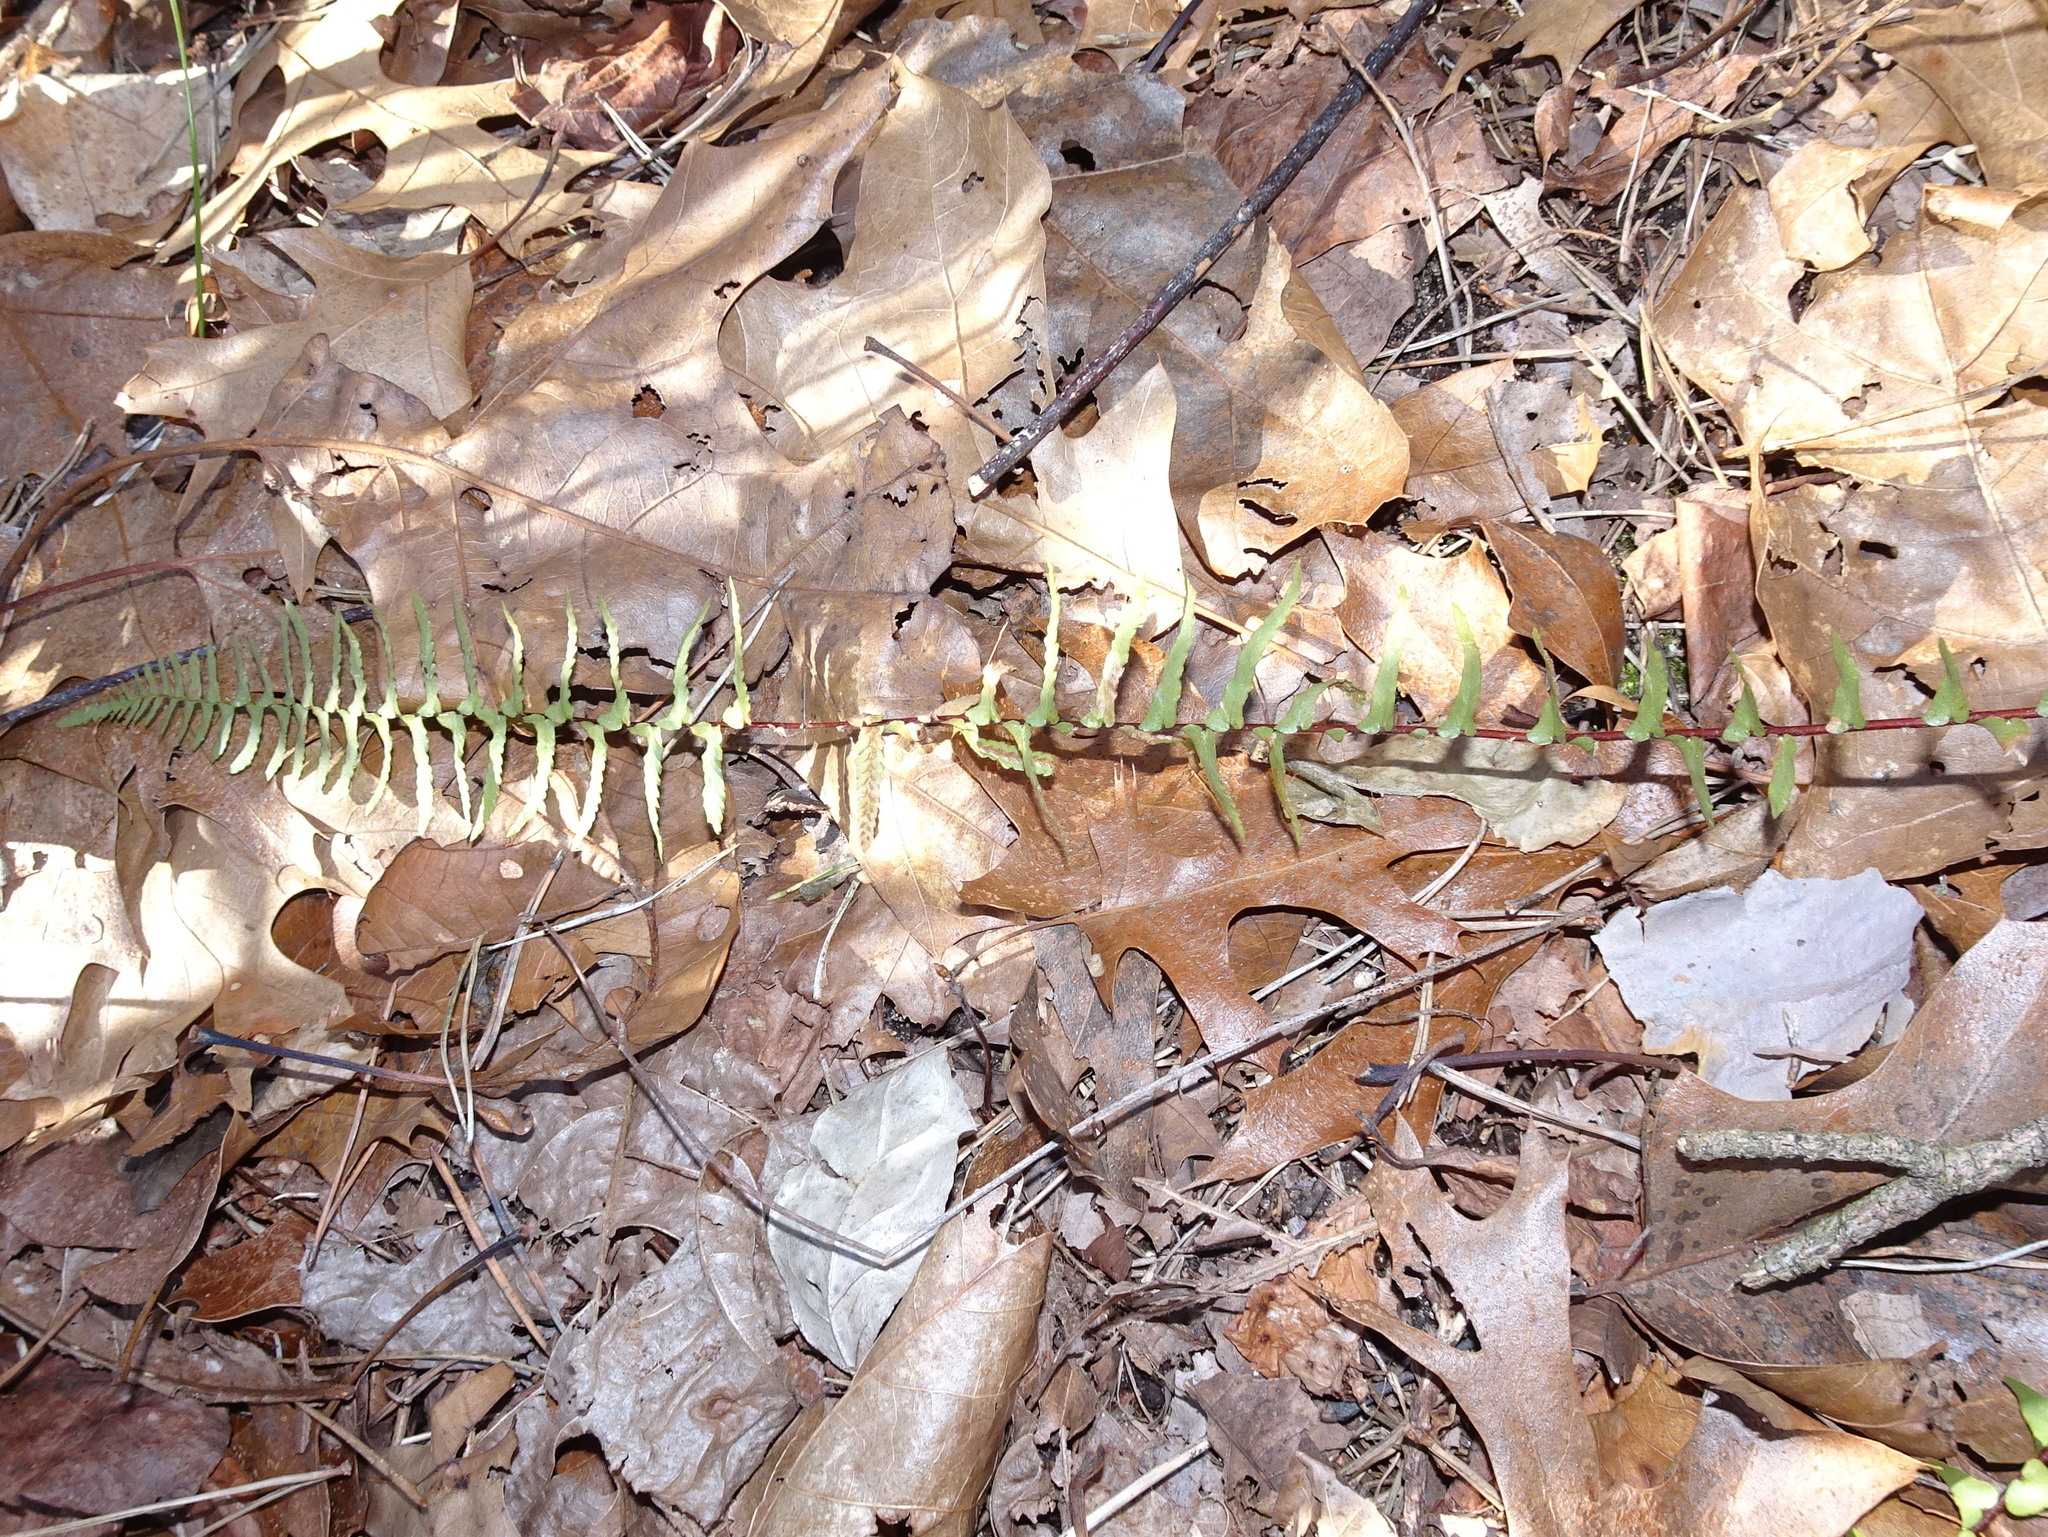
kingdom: Plantae
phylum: Tracheophyta
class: Polypodiopsida
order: Polypodiales
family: Aspleniaceae
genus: Asplenium
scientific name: Asplenium platyneuron
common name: Ebony spleenwort
